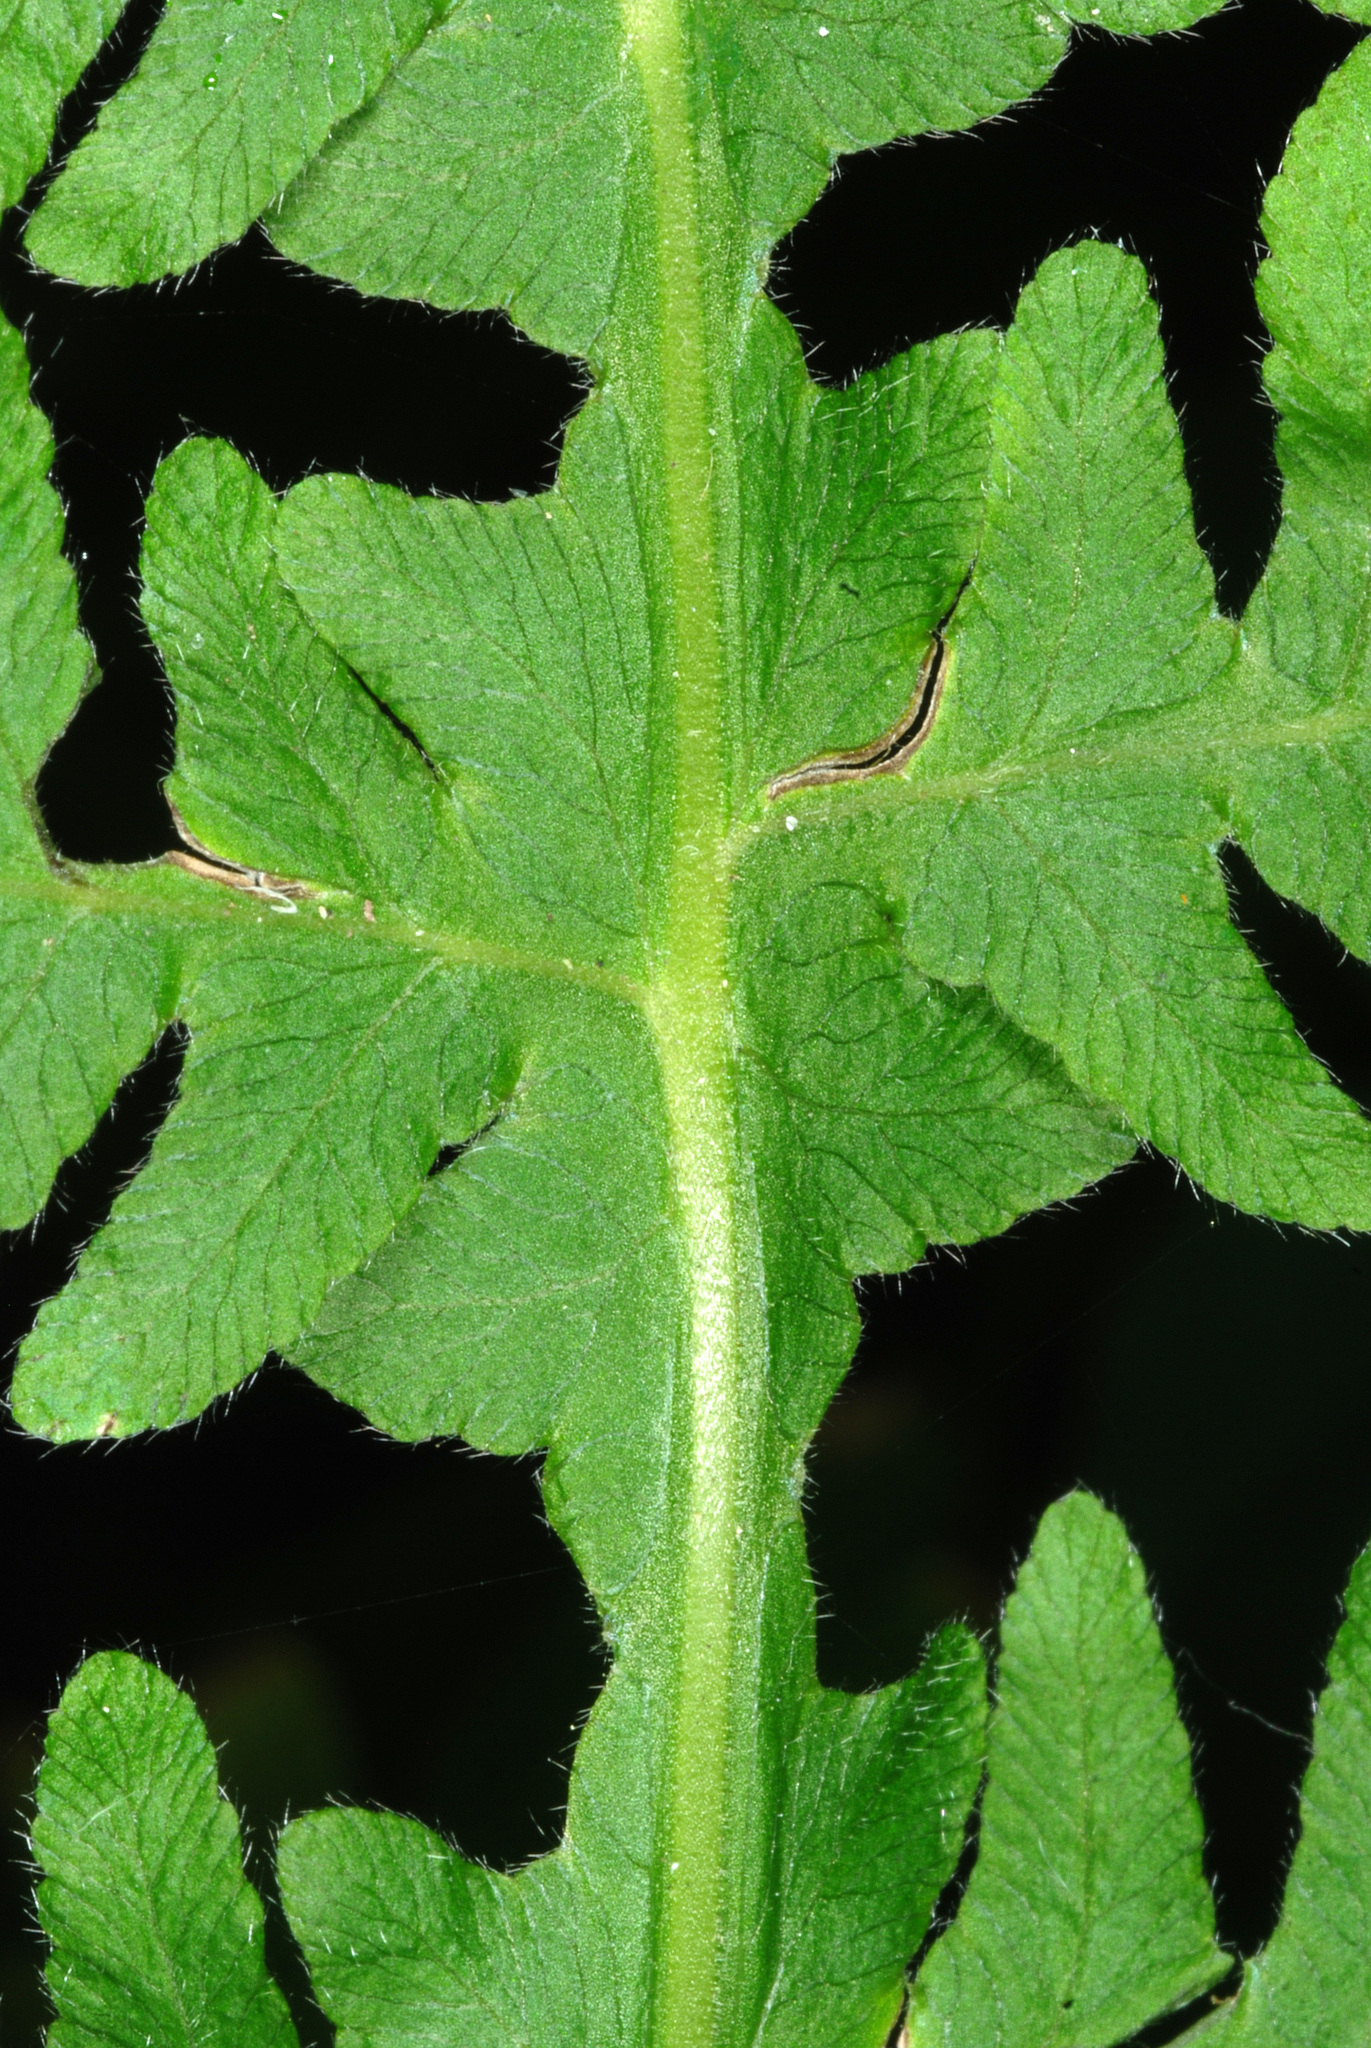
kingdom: Plantae
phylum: Tracheophyta
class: Polypodiopsida
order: Polypodiales
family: Thelypteridaceae
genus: Phegopteris
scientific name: Phegopteris hexagonoptera
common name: Broad beech fern
